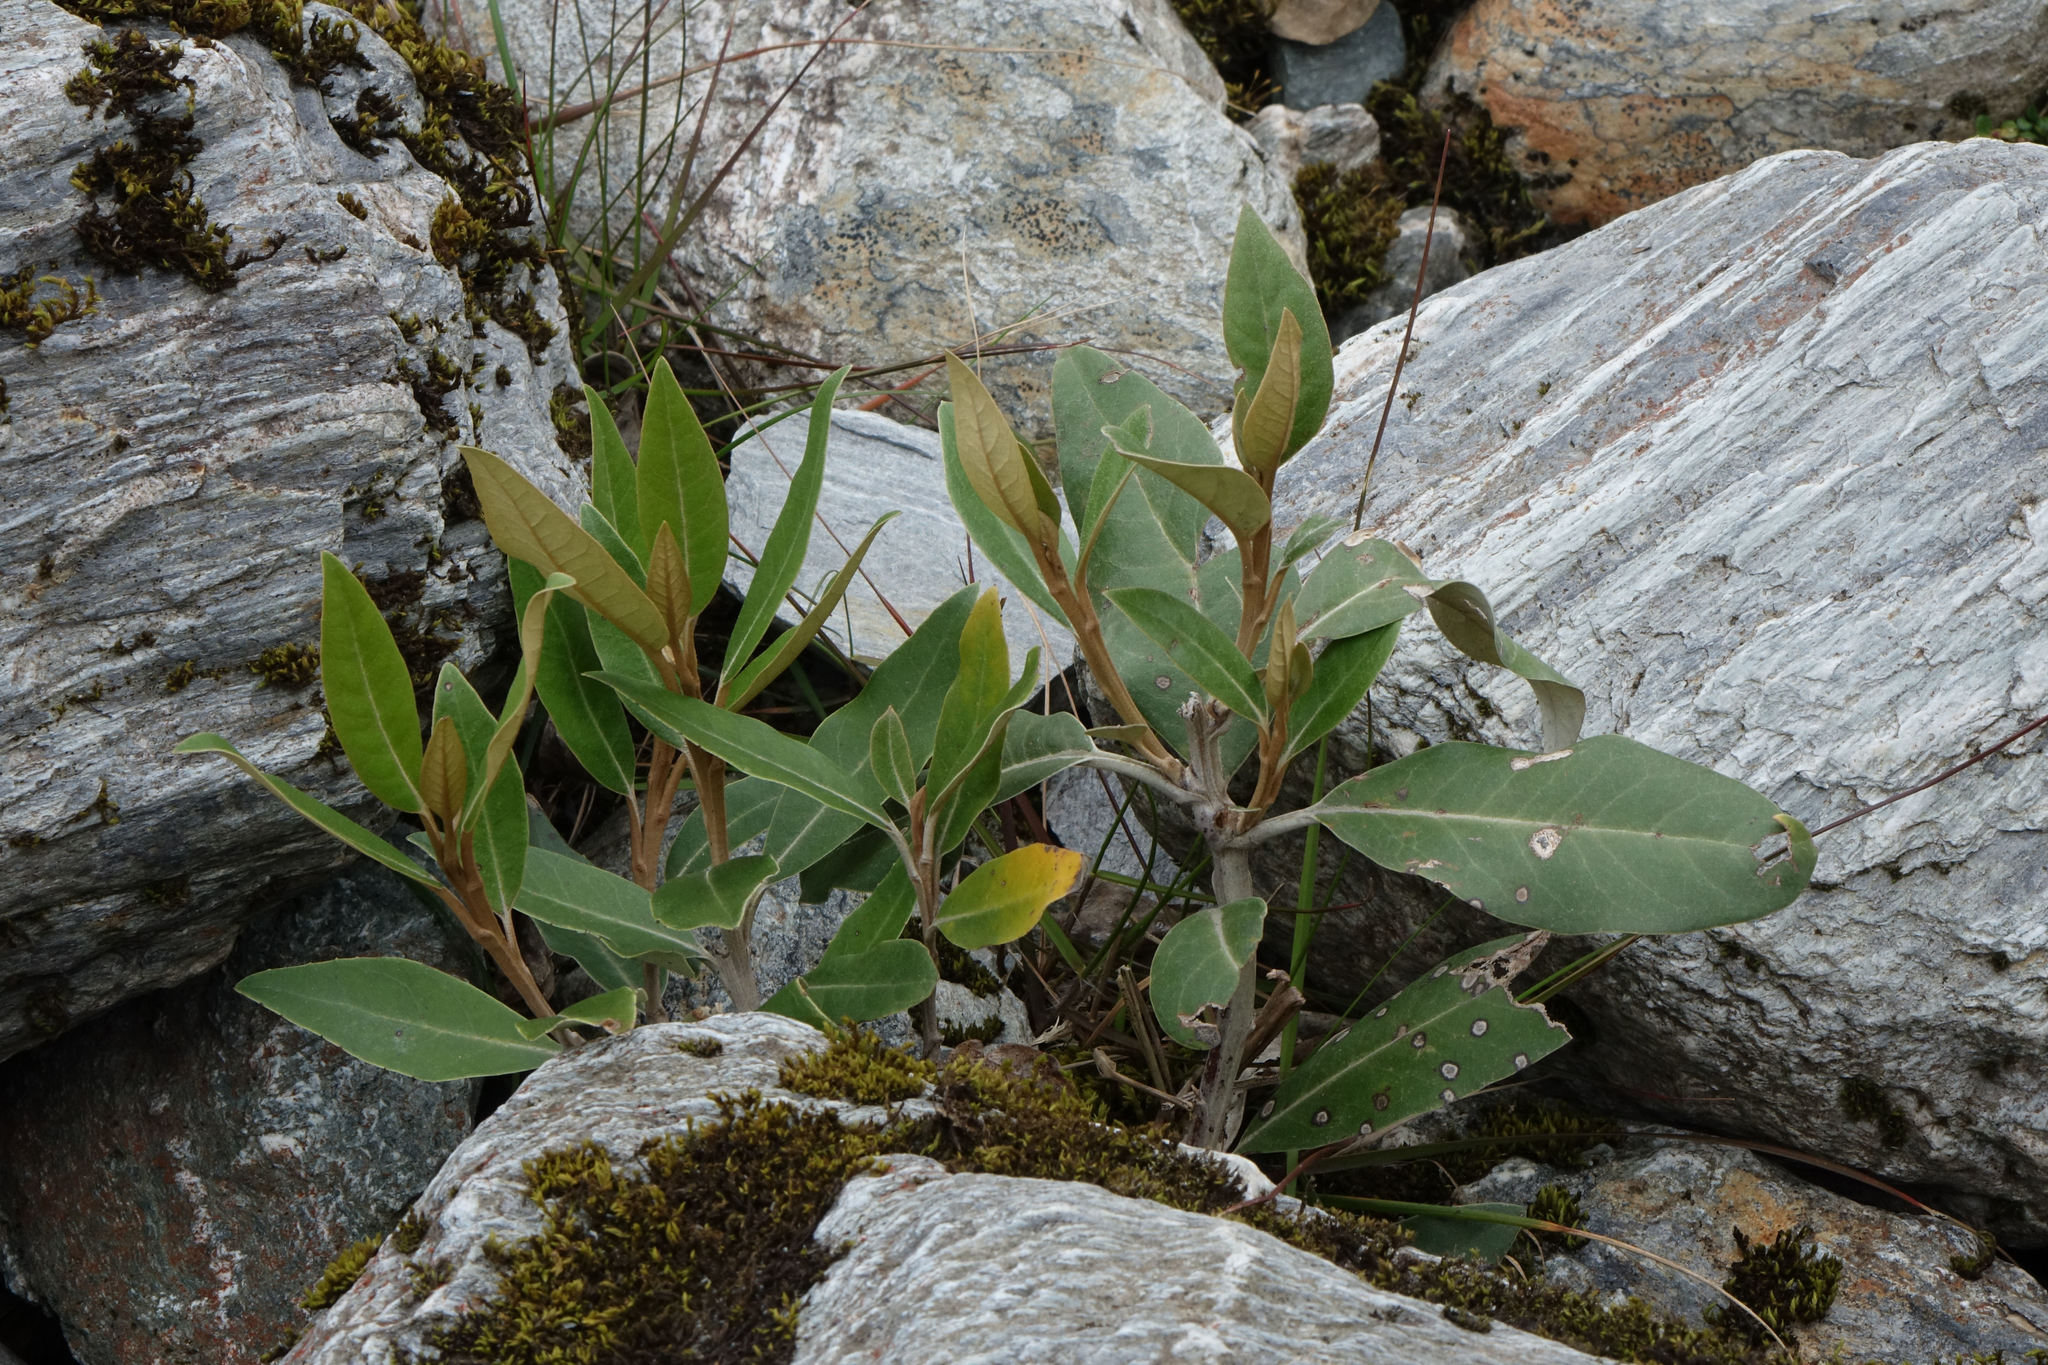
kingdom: Plantae
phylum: Tracheophyta
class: Magnoliopsida
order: Asterales
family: Asteraceae
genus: Olearia
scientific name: Olearia avicenniifolia
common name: Mangrove-leaf daisybush
